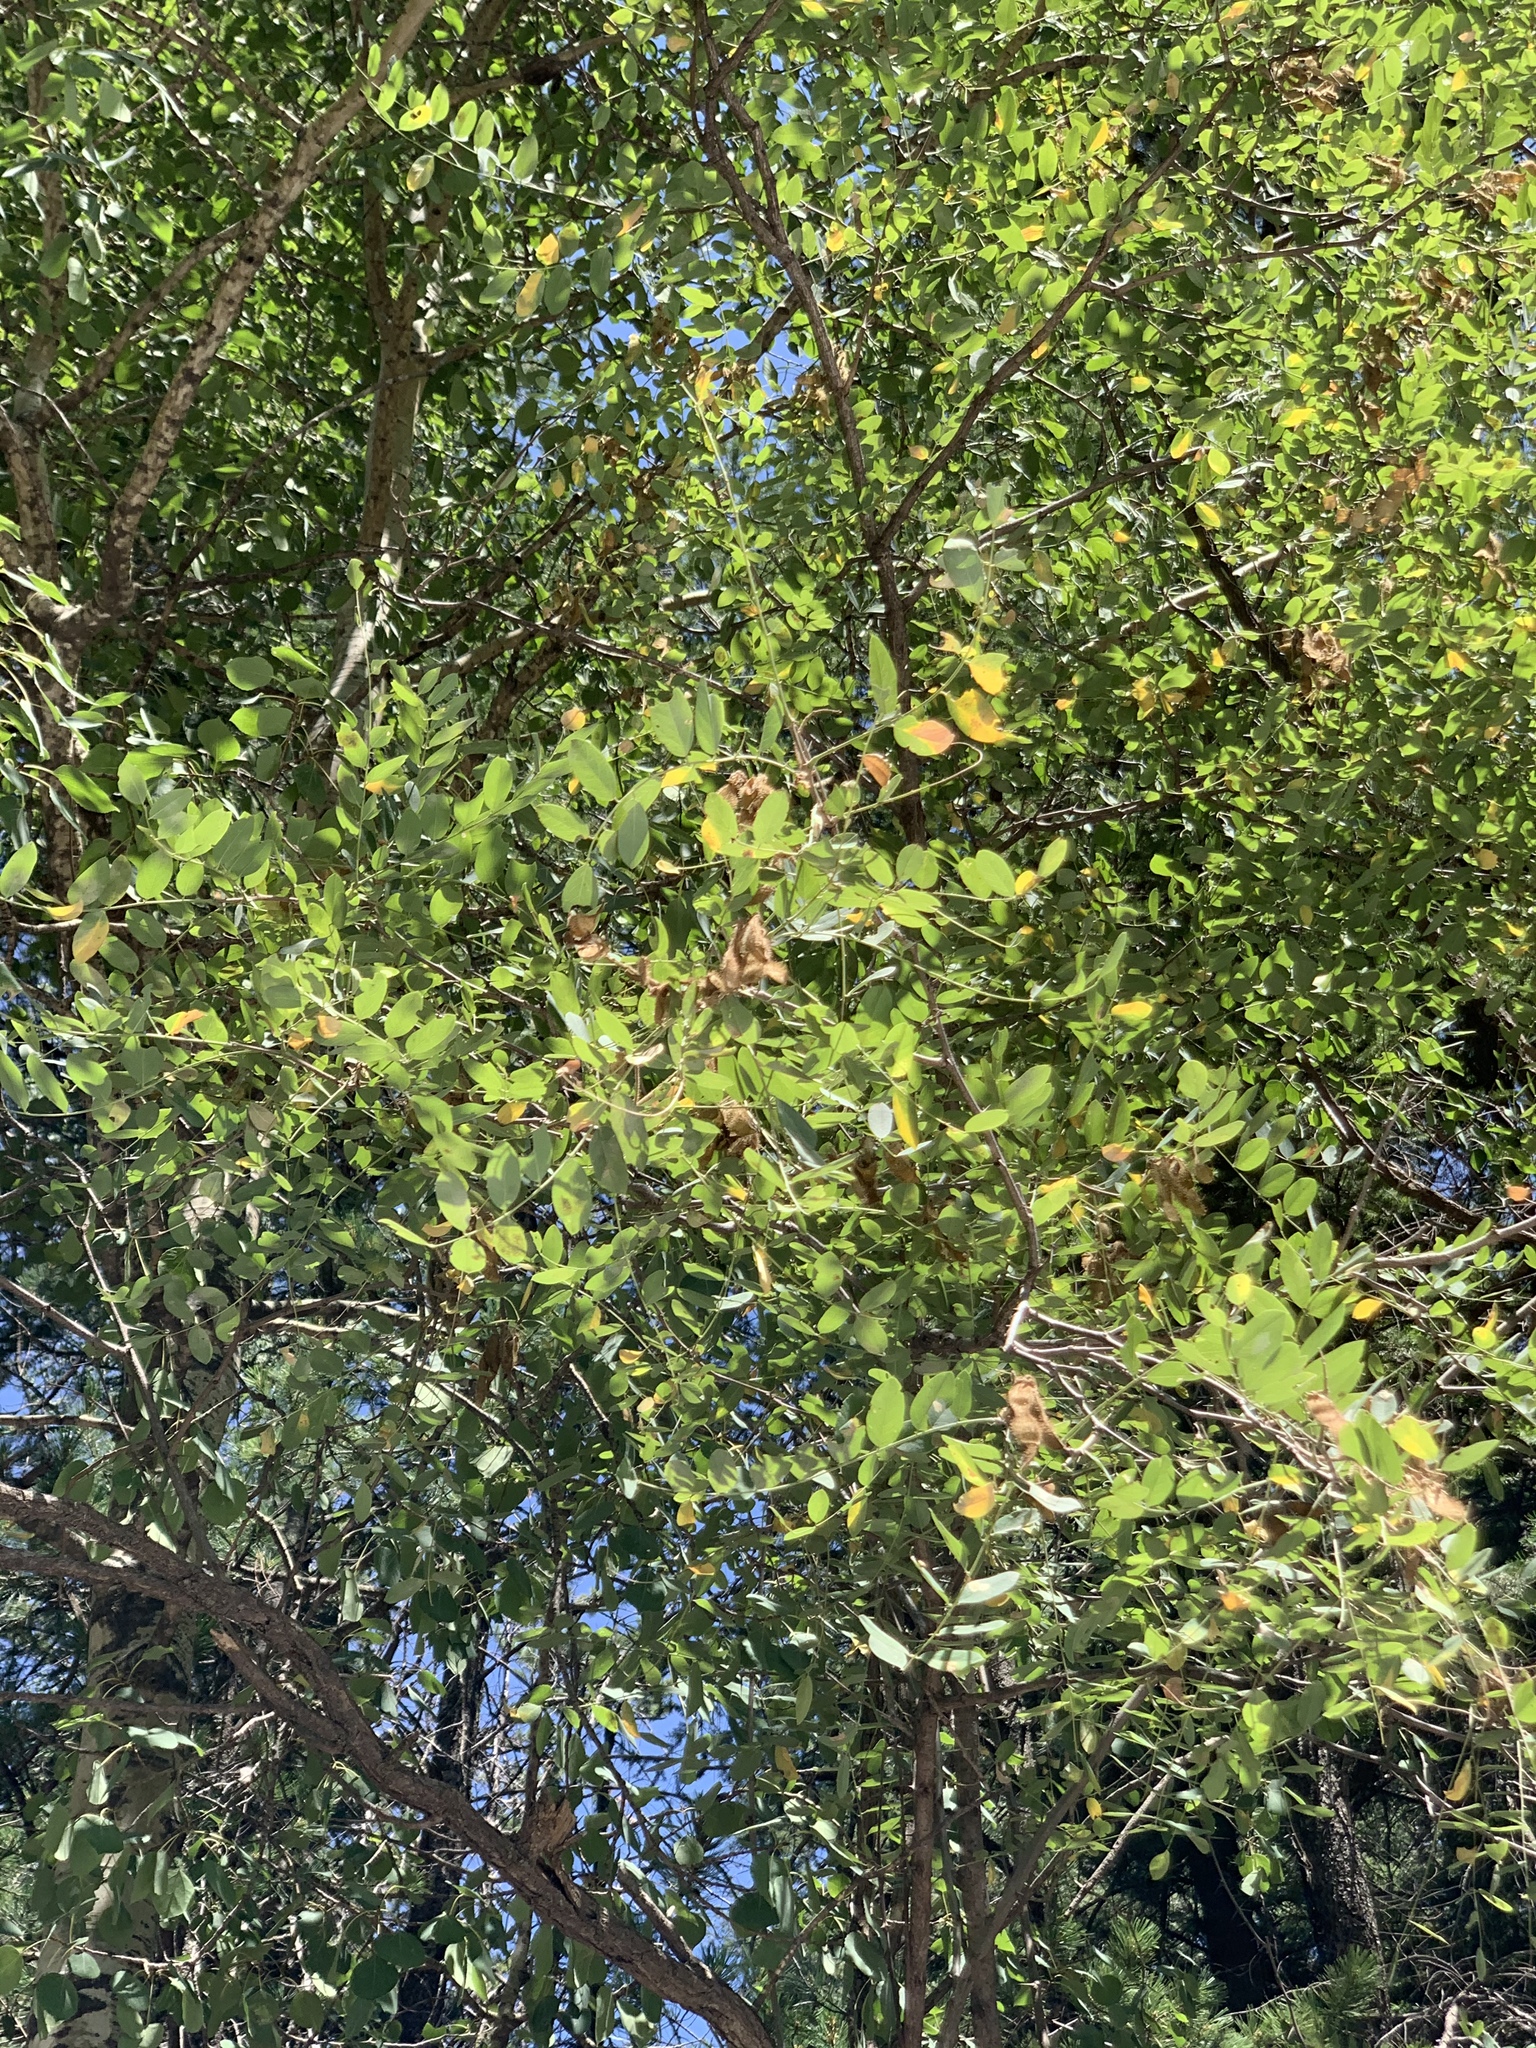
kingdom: Plantae
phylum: Tracheophyta
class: Magnoliopsida
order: Fabales
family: Fabaceae
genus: Robinia
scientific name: Robinia neomexicana
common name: New mexico locust
